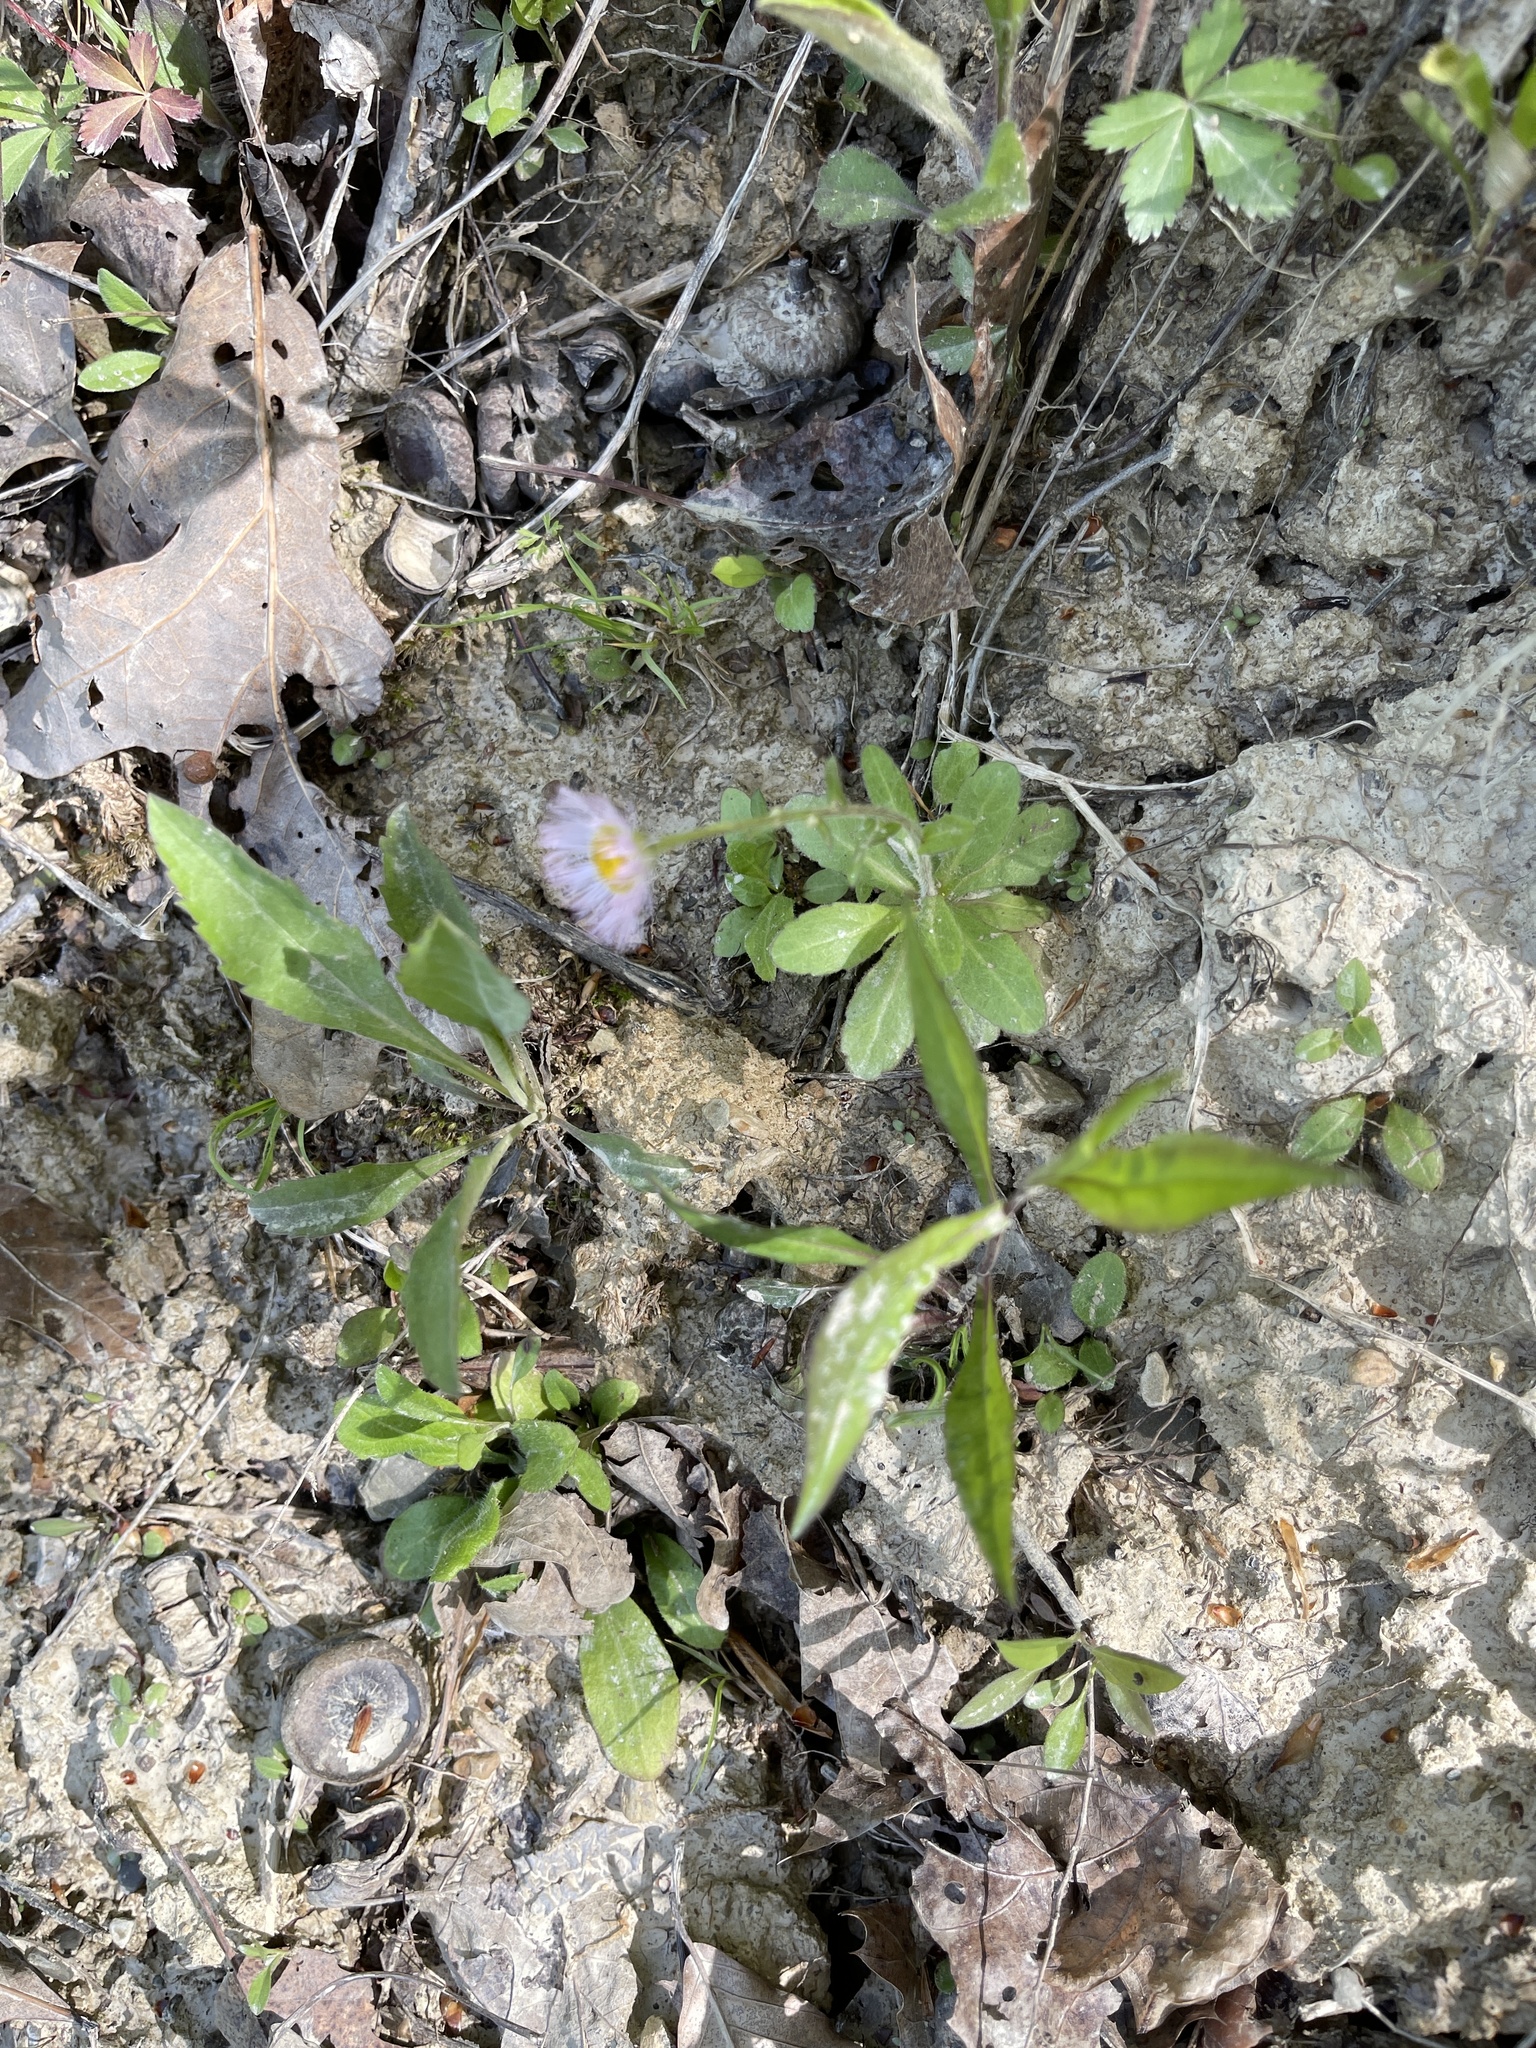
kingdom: Plantae
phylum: Tracheophyta
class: Magnoliopsida
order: Asterales
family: Asteraceae
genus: Erigeron
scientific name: Erigeron pulchellus
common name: Hairy fleabane
